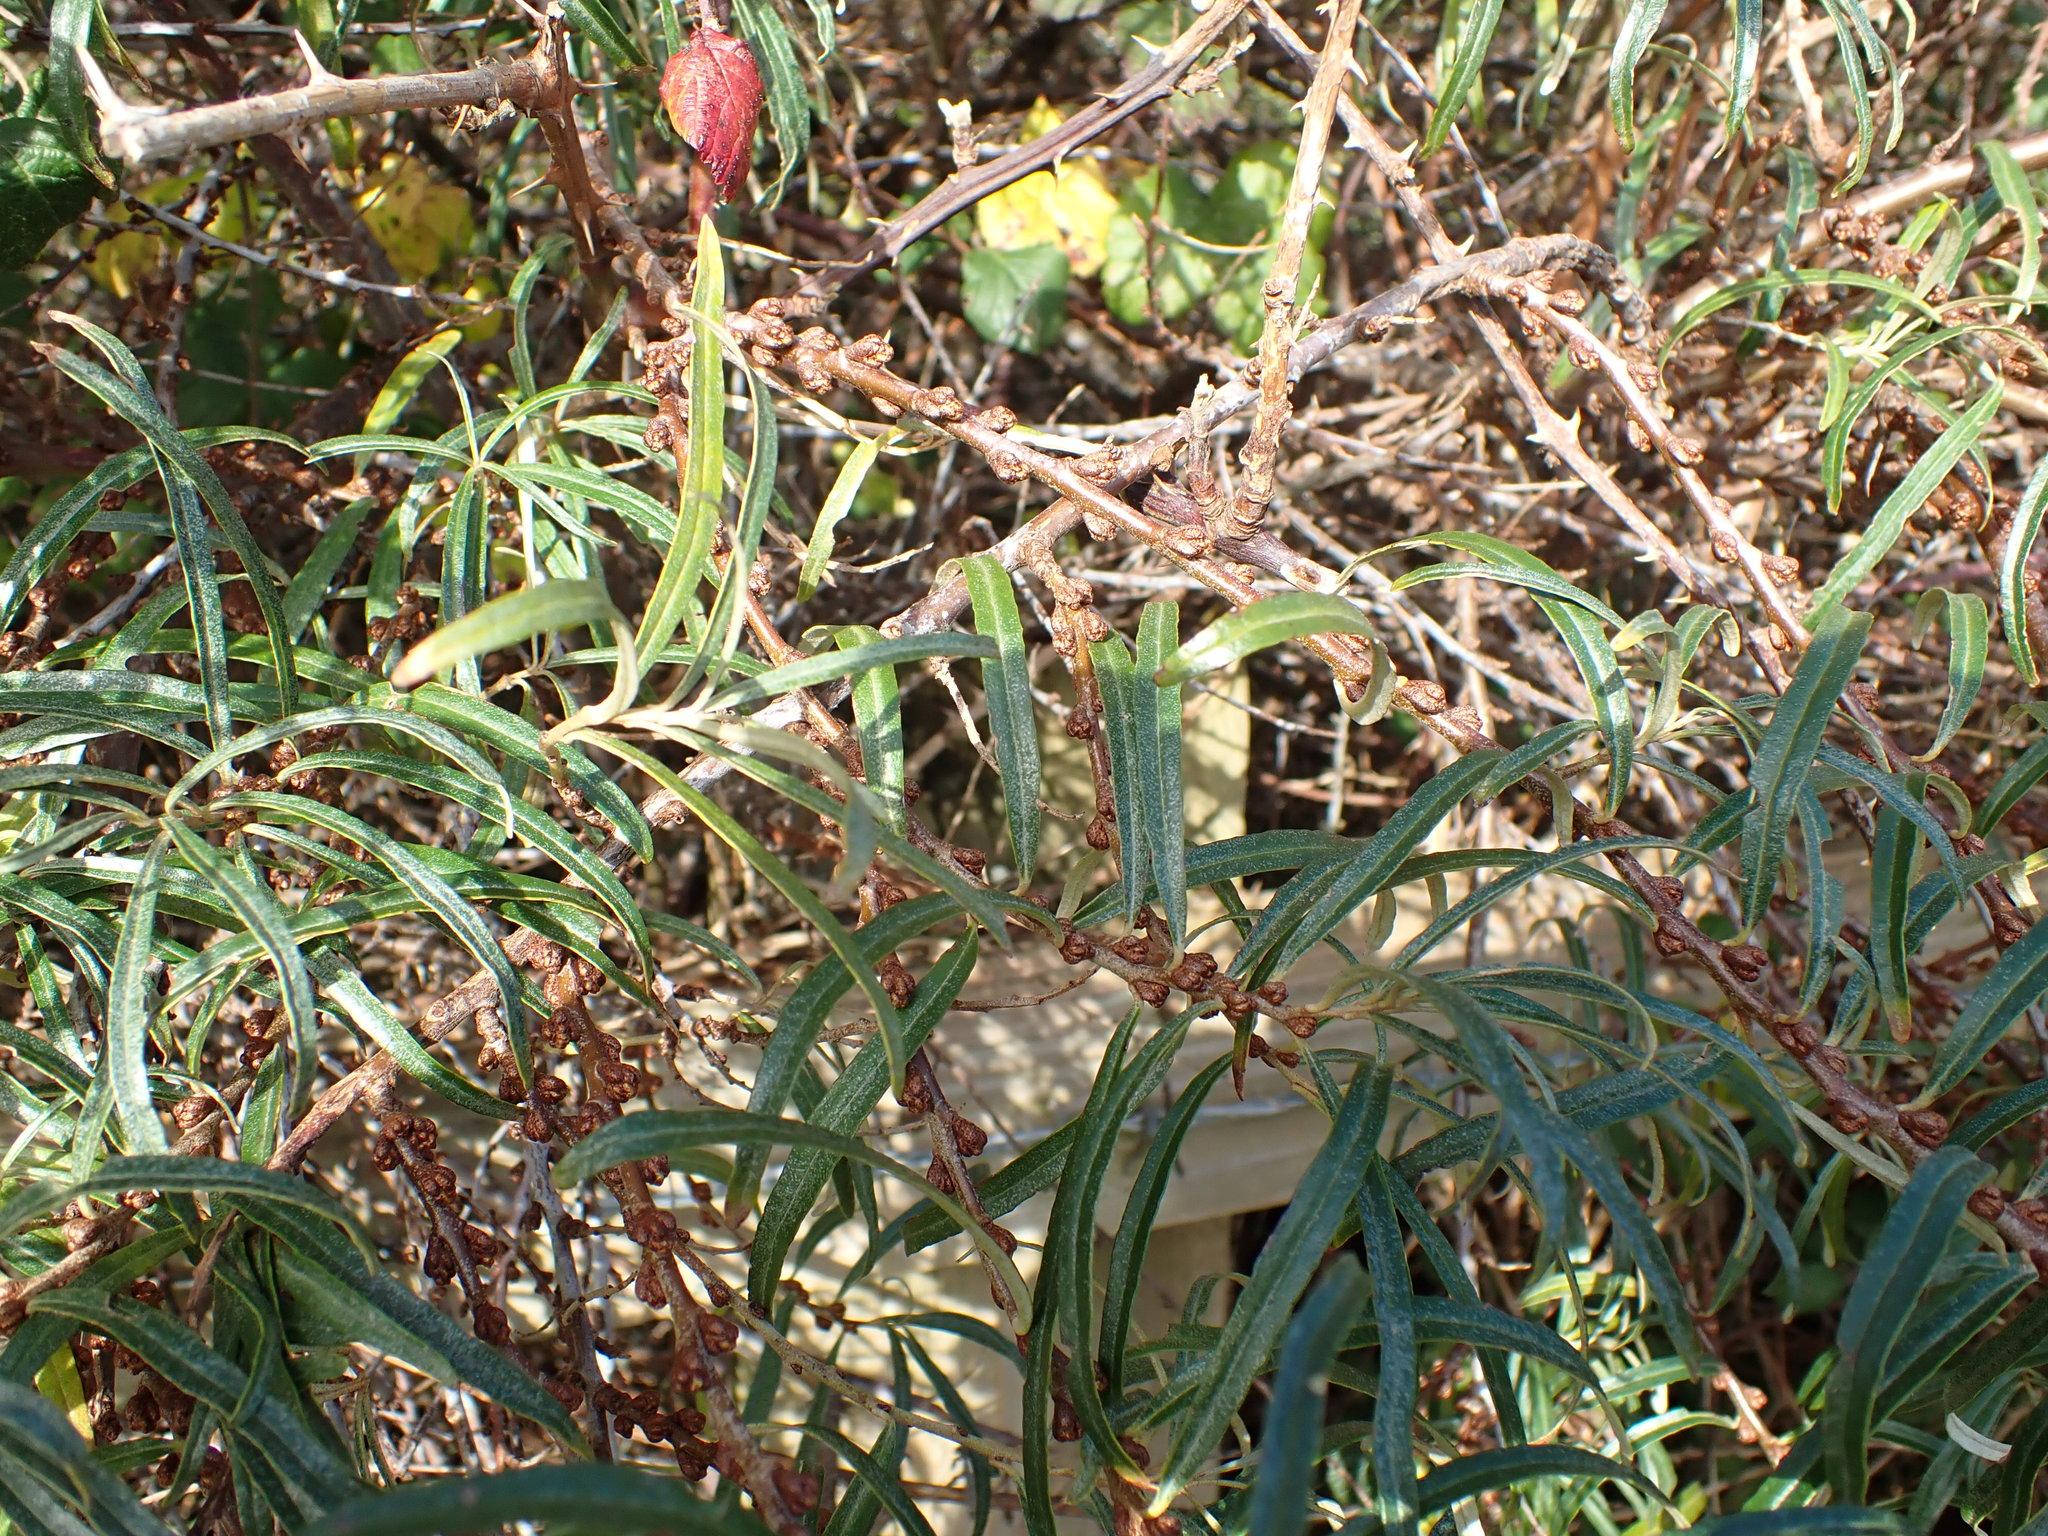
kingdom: Plantae
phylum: Tracheophyta
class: Magnoliopsida
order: Rosales
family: Elaeagnaceae
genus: Hippophae
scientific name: Hippophae rhamnoides
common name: Sea-buckthorn
